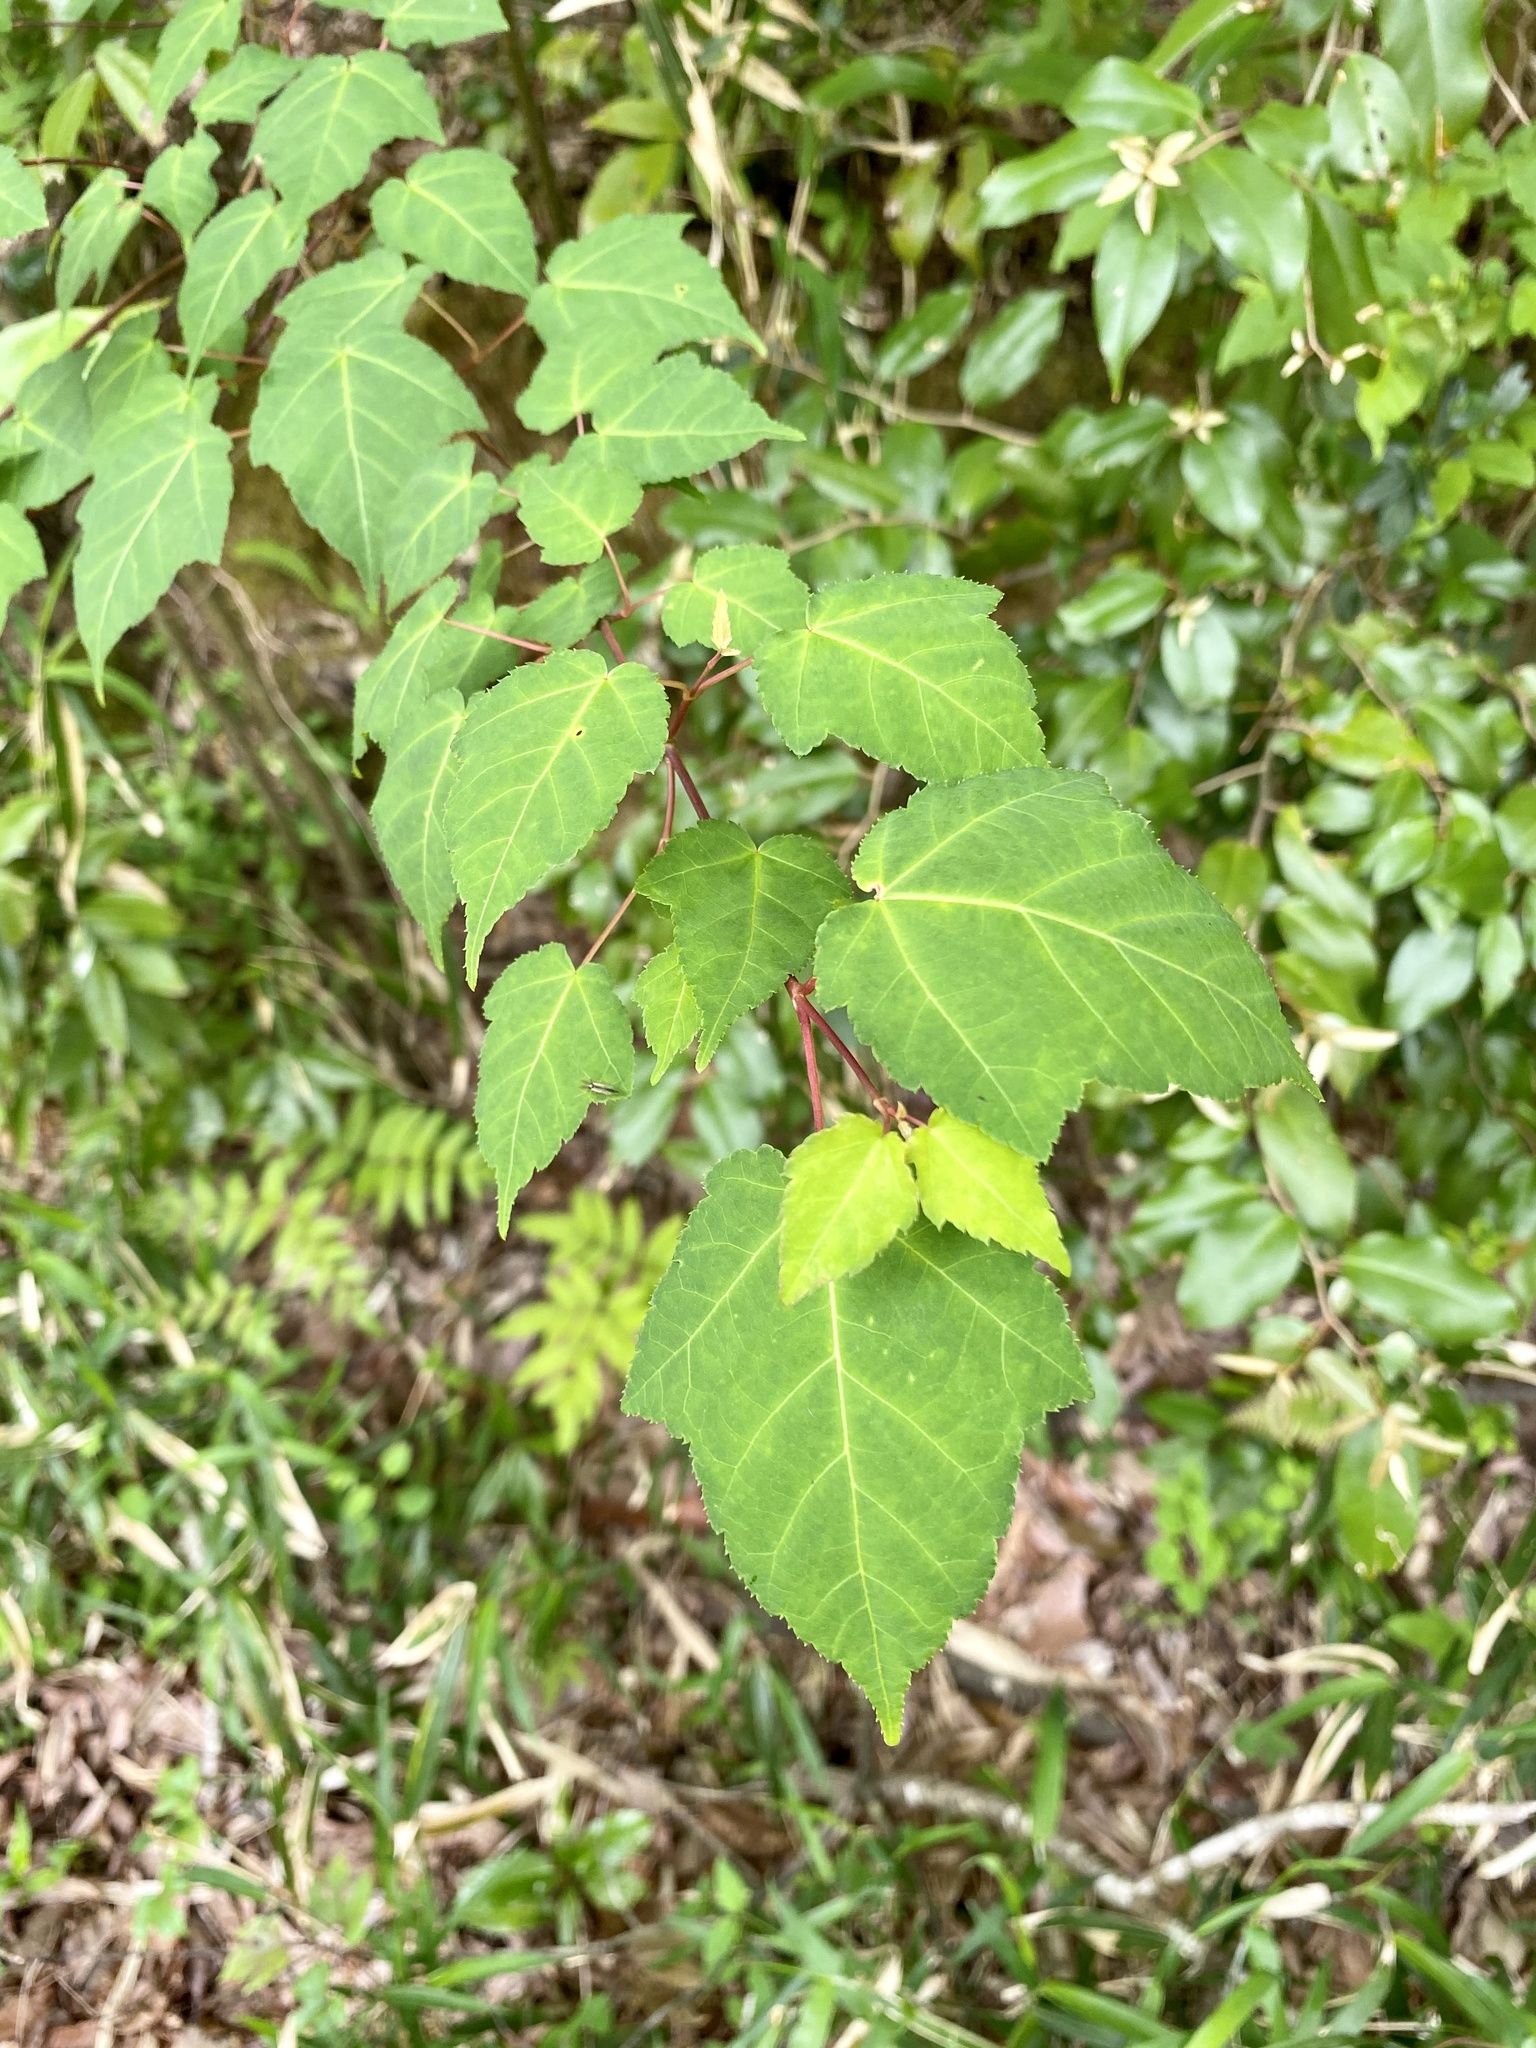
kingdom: Plantae
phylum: Tracheophyta
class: Magnoliopsida
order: Sapindales
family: Sapindaceae
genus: Acer
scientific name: Acer crataegifolium
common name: Hawthorn-leaf maple
